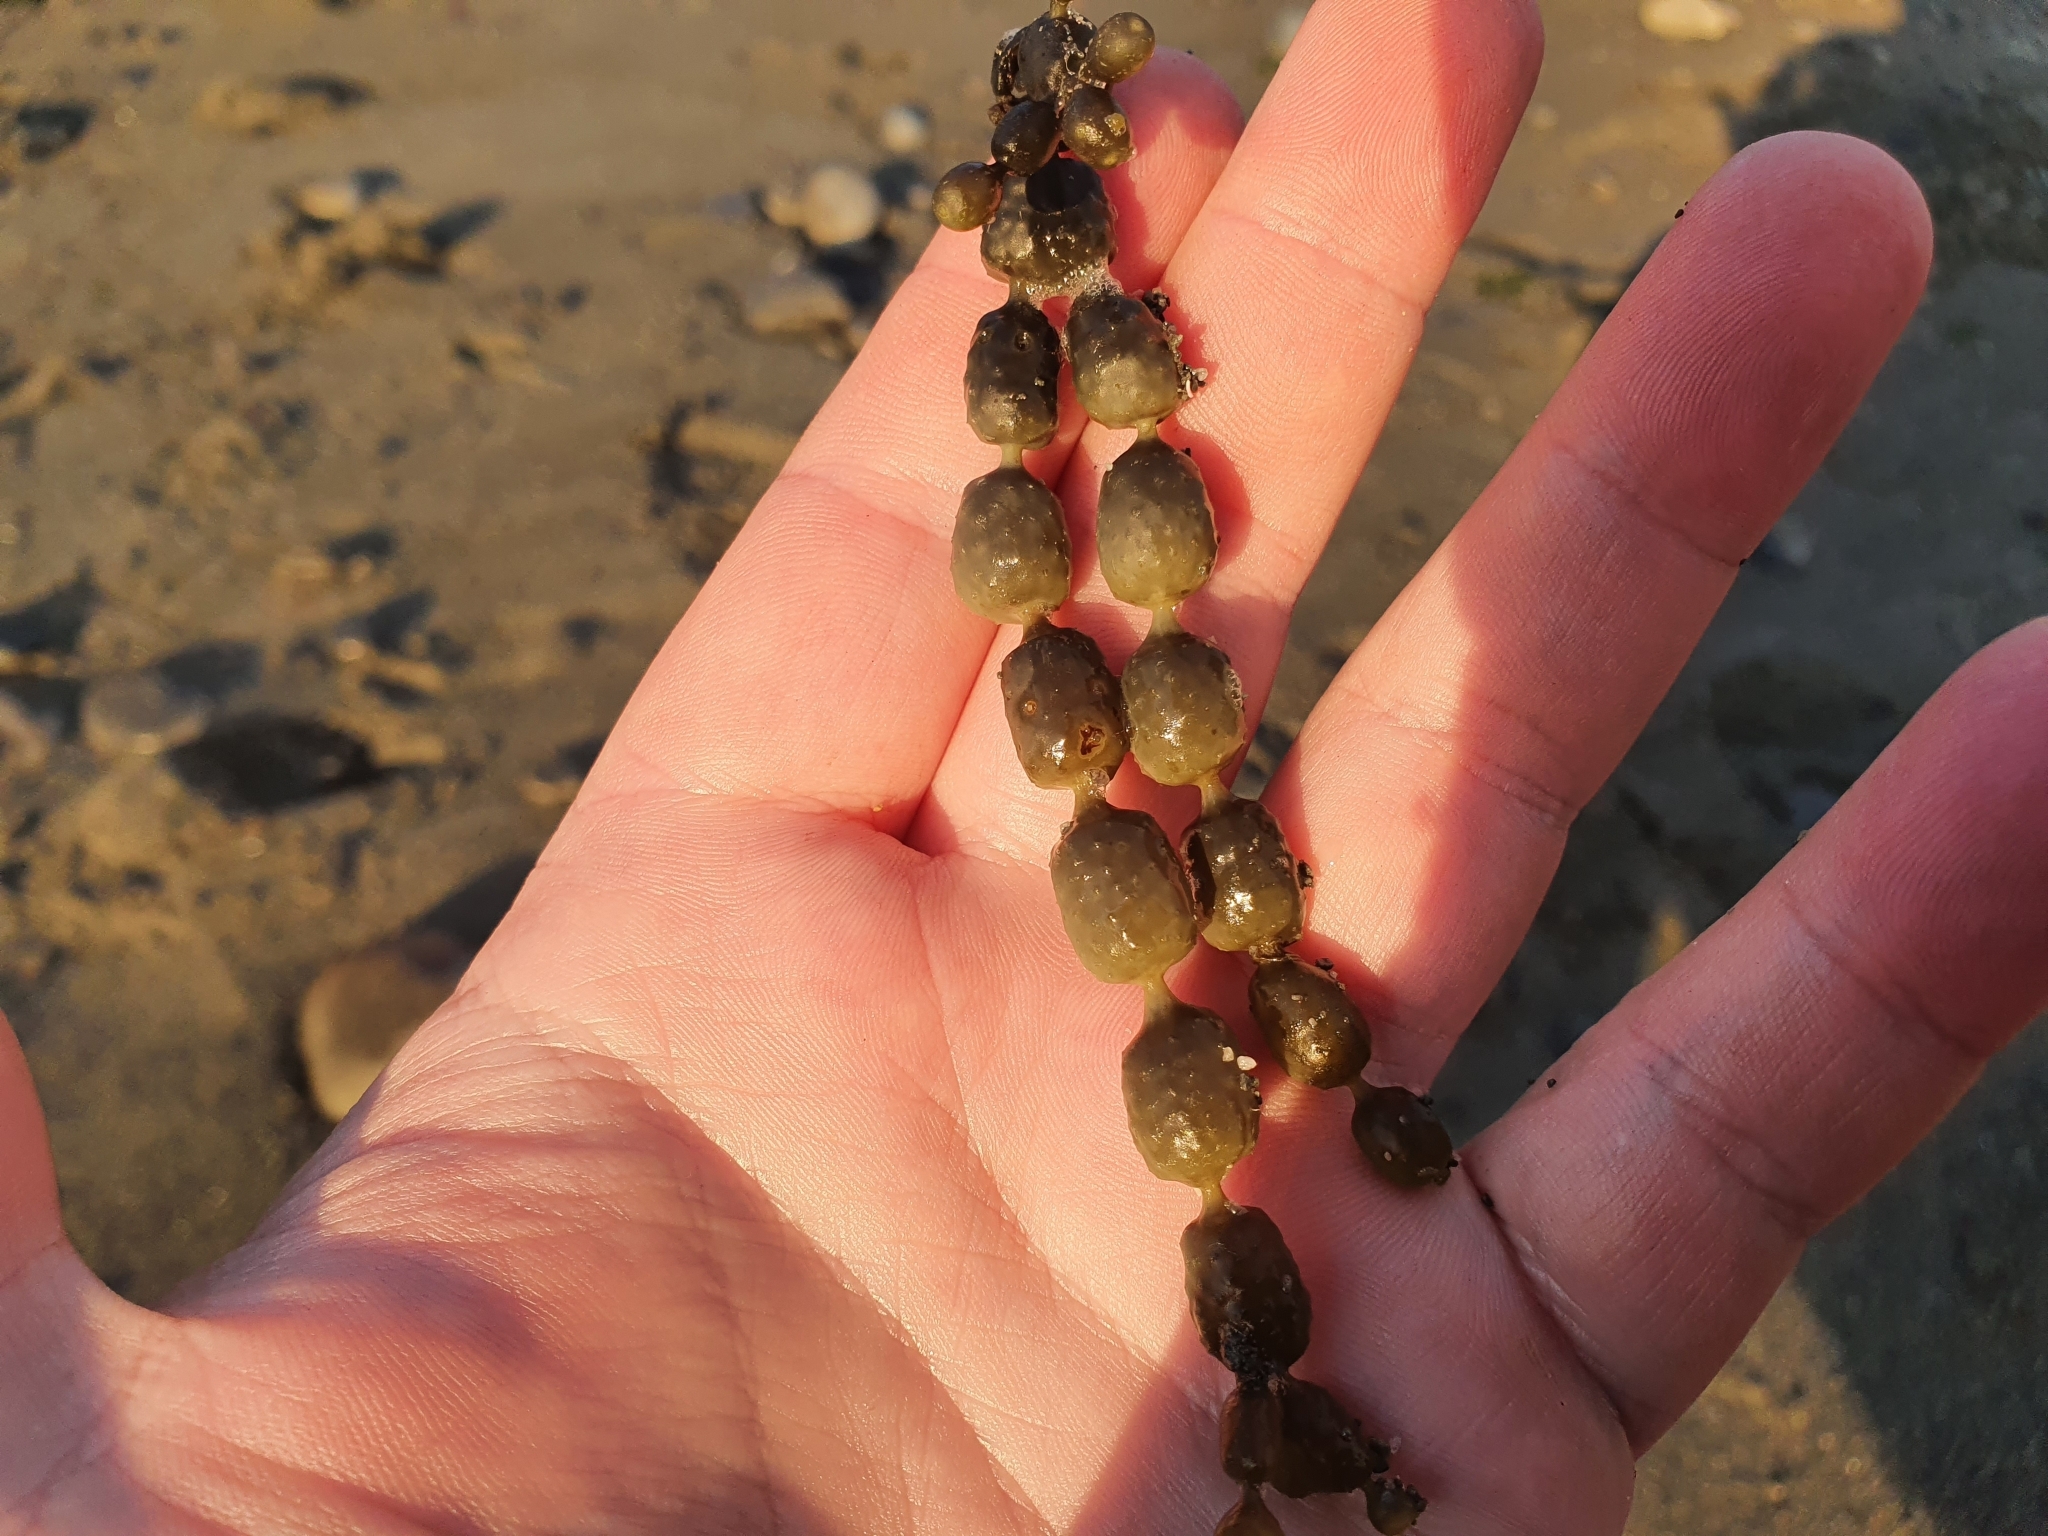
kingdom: Chromista
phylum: Ochrophyta
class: Phaeophyceae
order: Fucales
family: Hormosiraceae
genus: Hormosira
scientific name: Hormosira banksii
